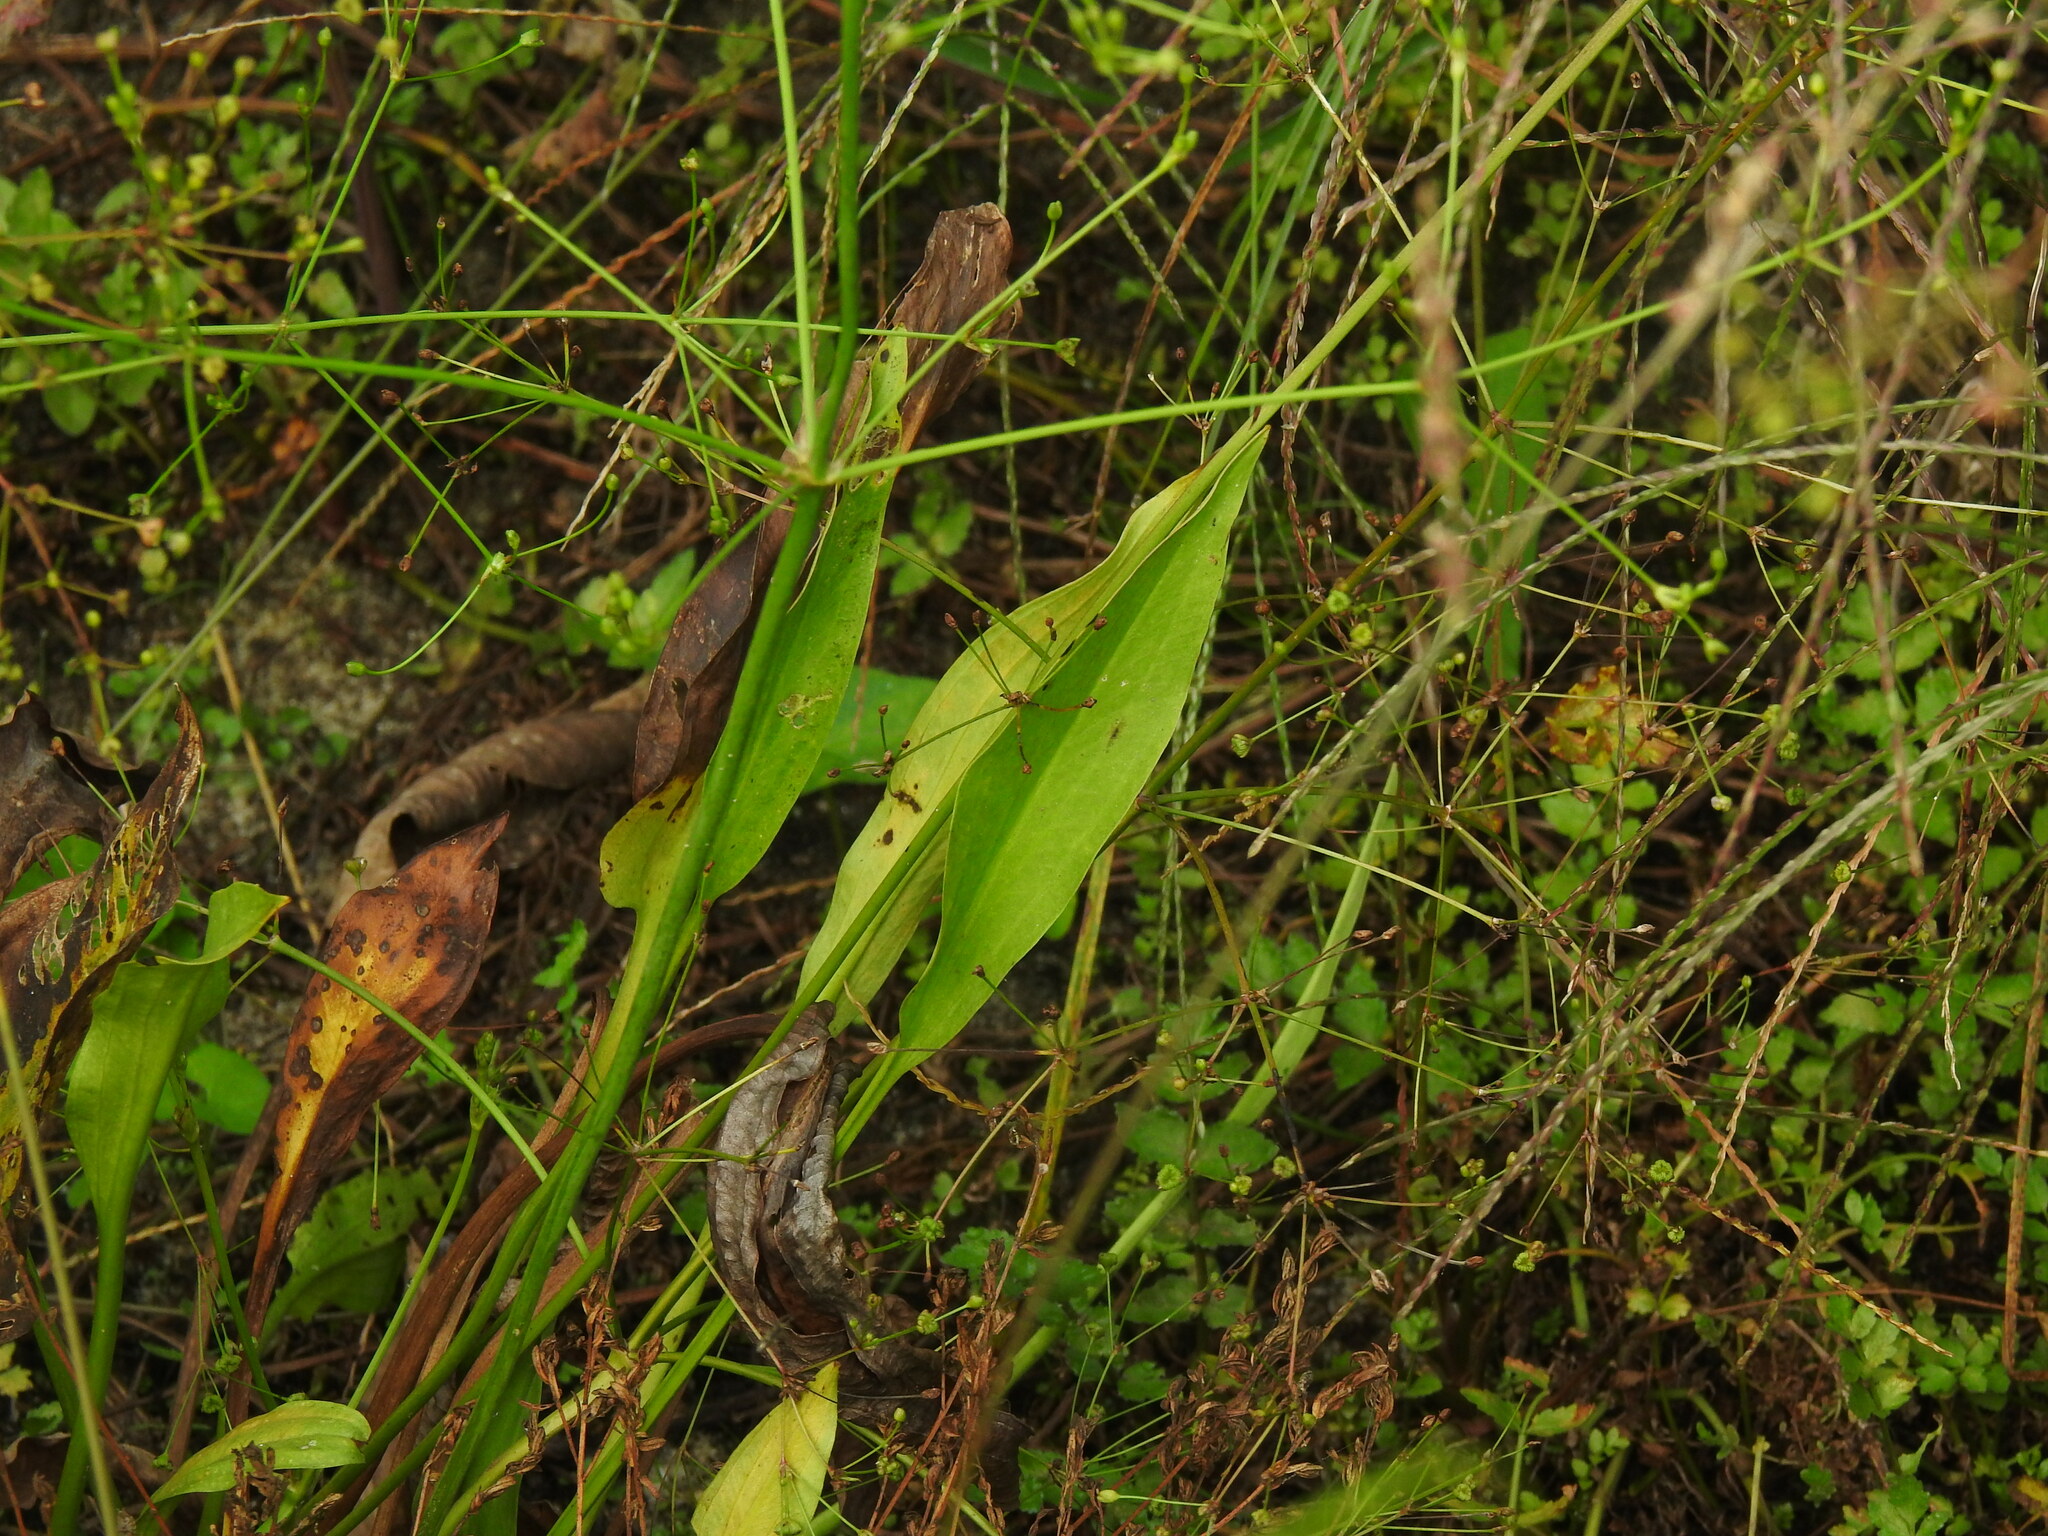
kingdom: Plantae
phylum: Tracheophyta
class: Liliopsida
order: Alismatales
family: Alismataceae
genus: Alisma
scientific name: Alisma lanceolatum
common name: Narrow-leaved water-plantain
